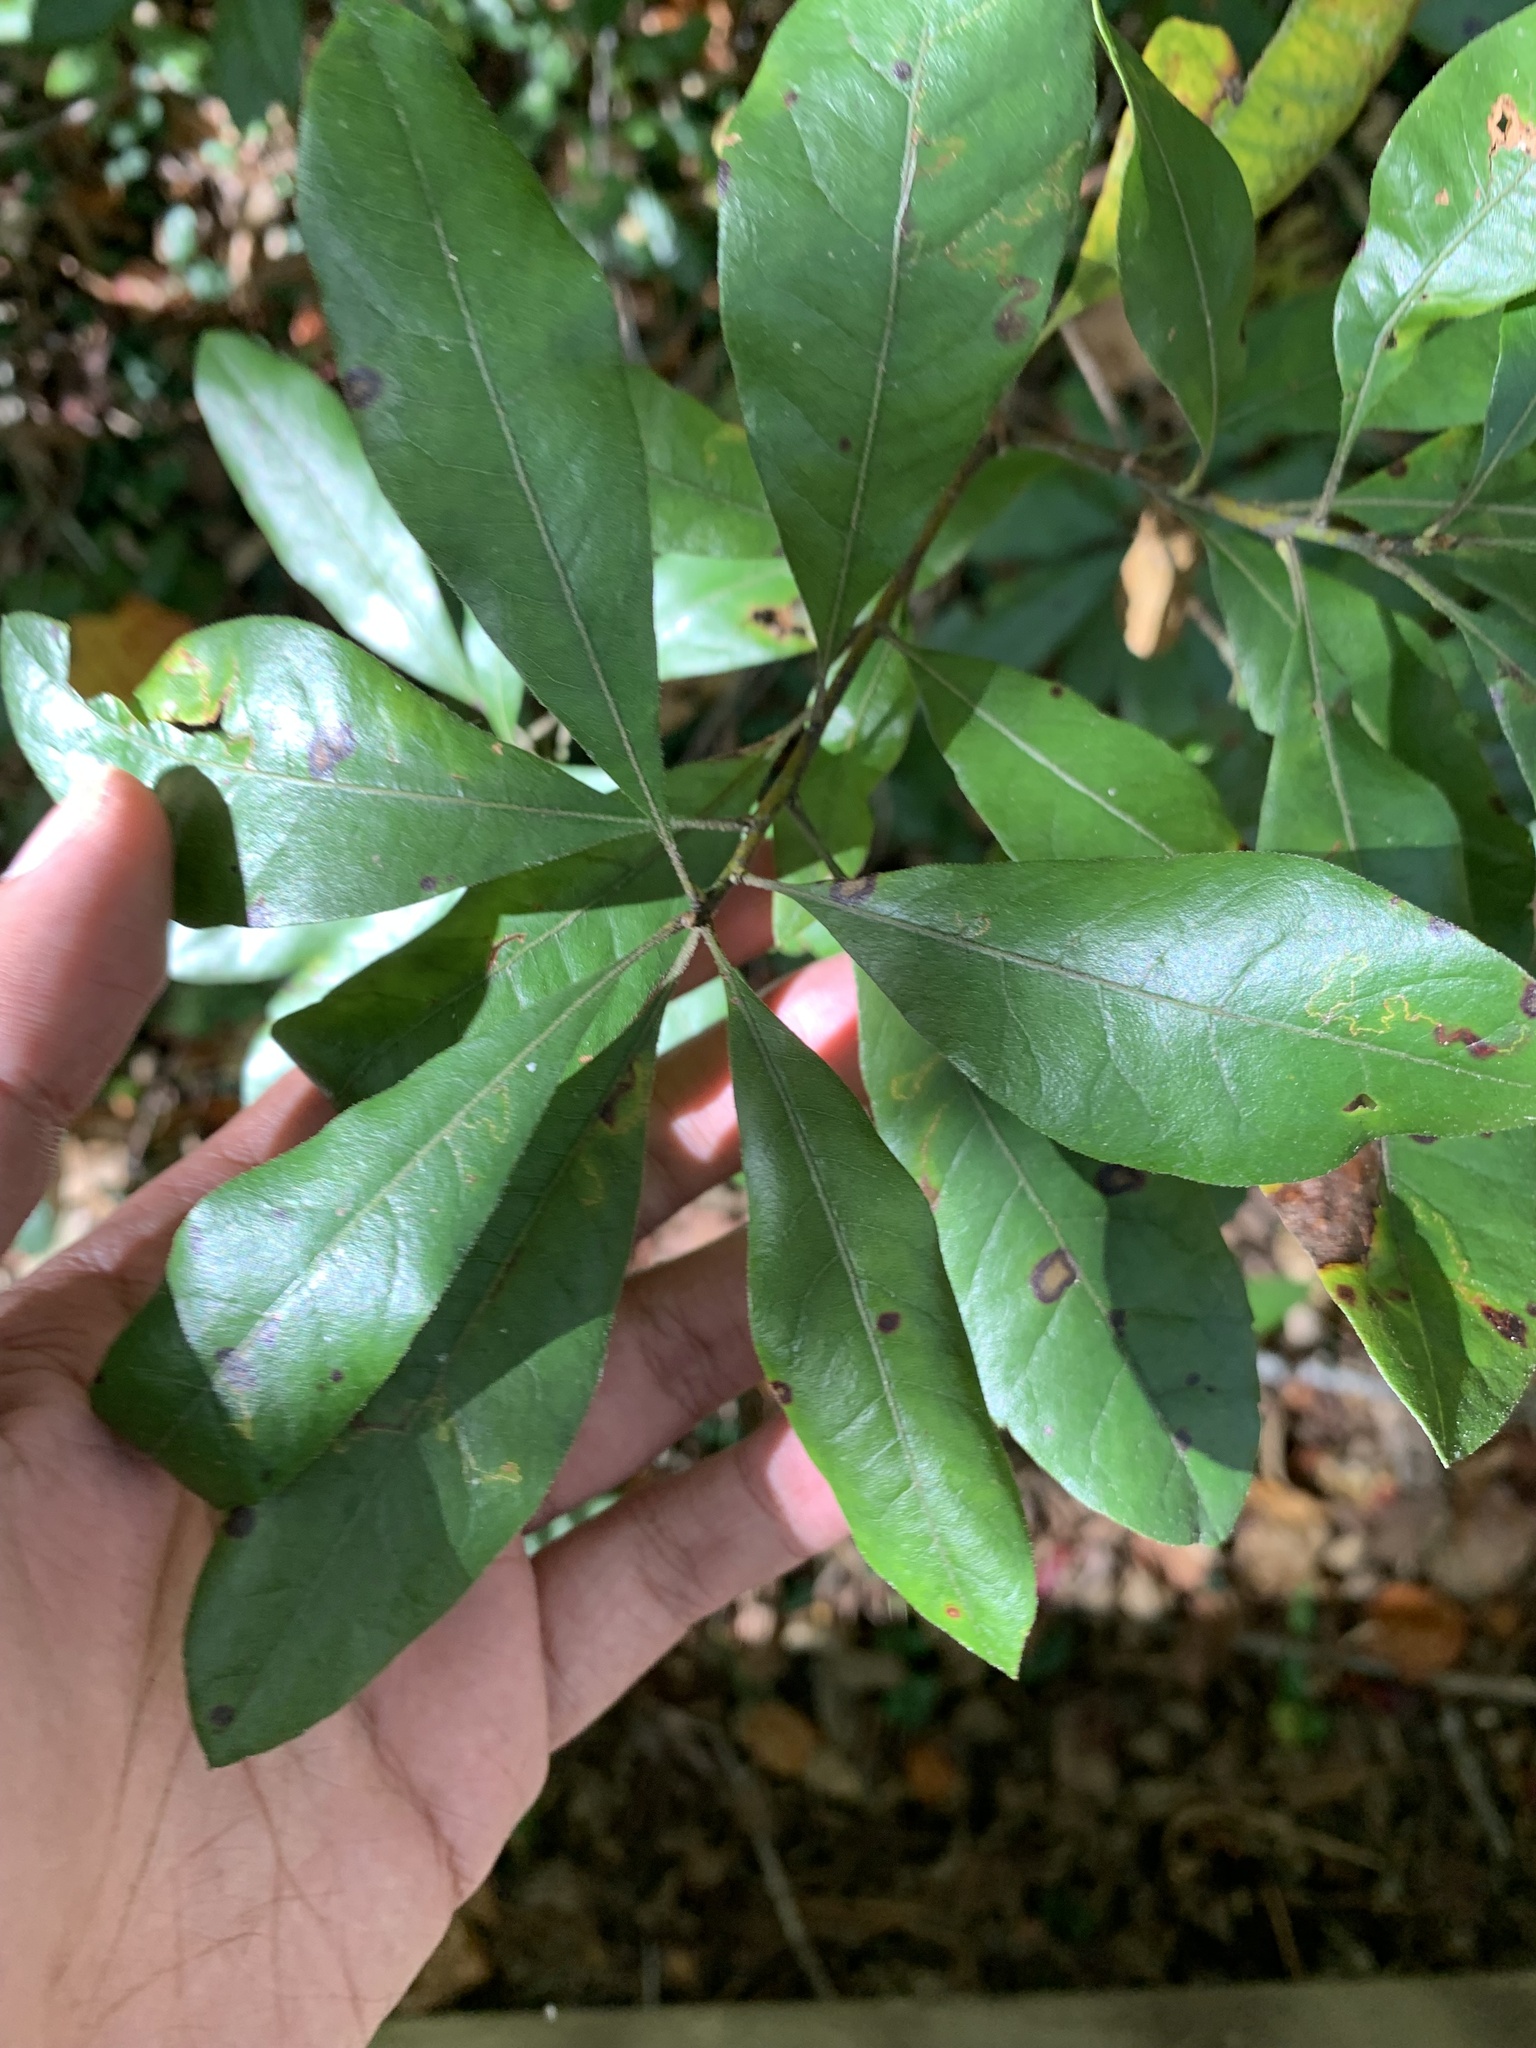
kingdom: Plantae
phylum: Tracheophyta
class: Magnoliopsida
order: Fagales
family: Myricaceae
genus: Morella
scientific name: Morella caroliniensis
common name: Evergreen bayberry
